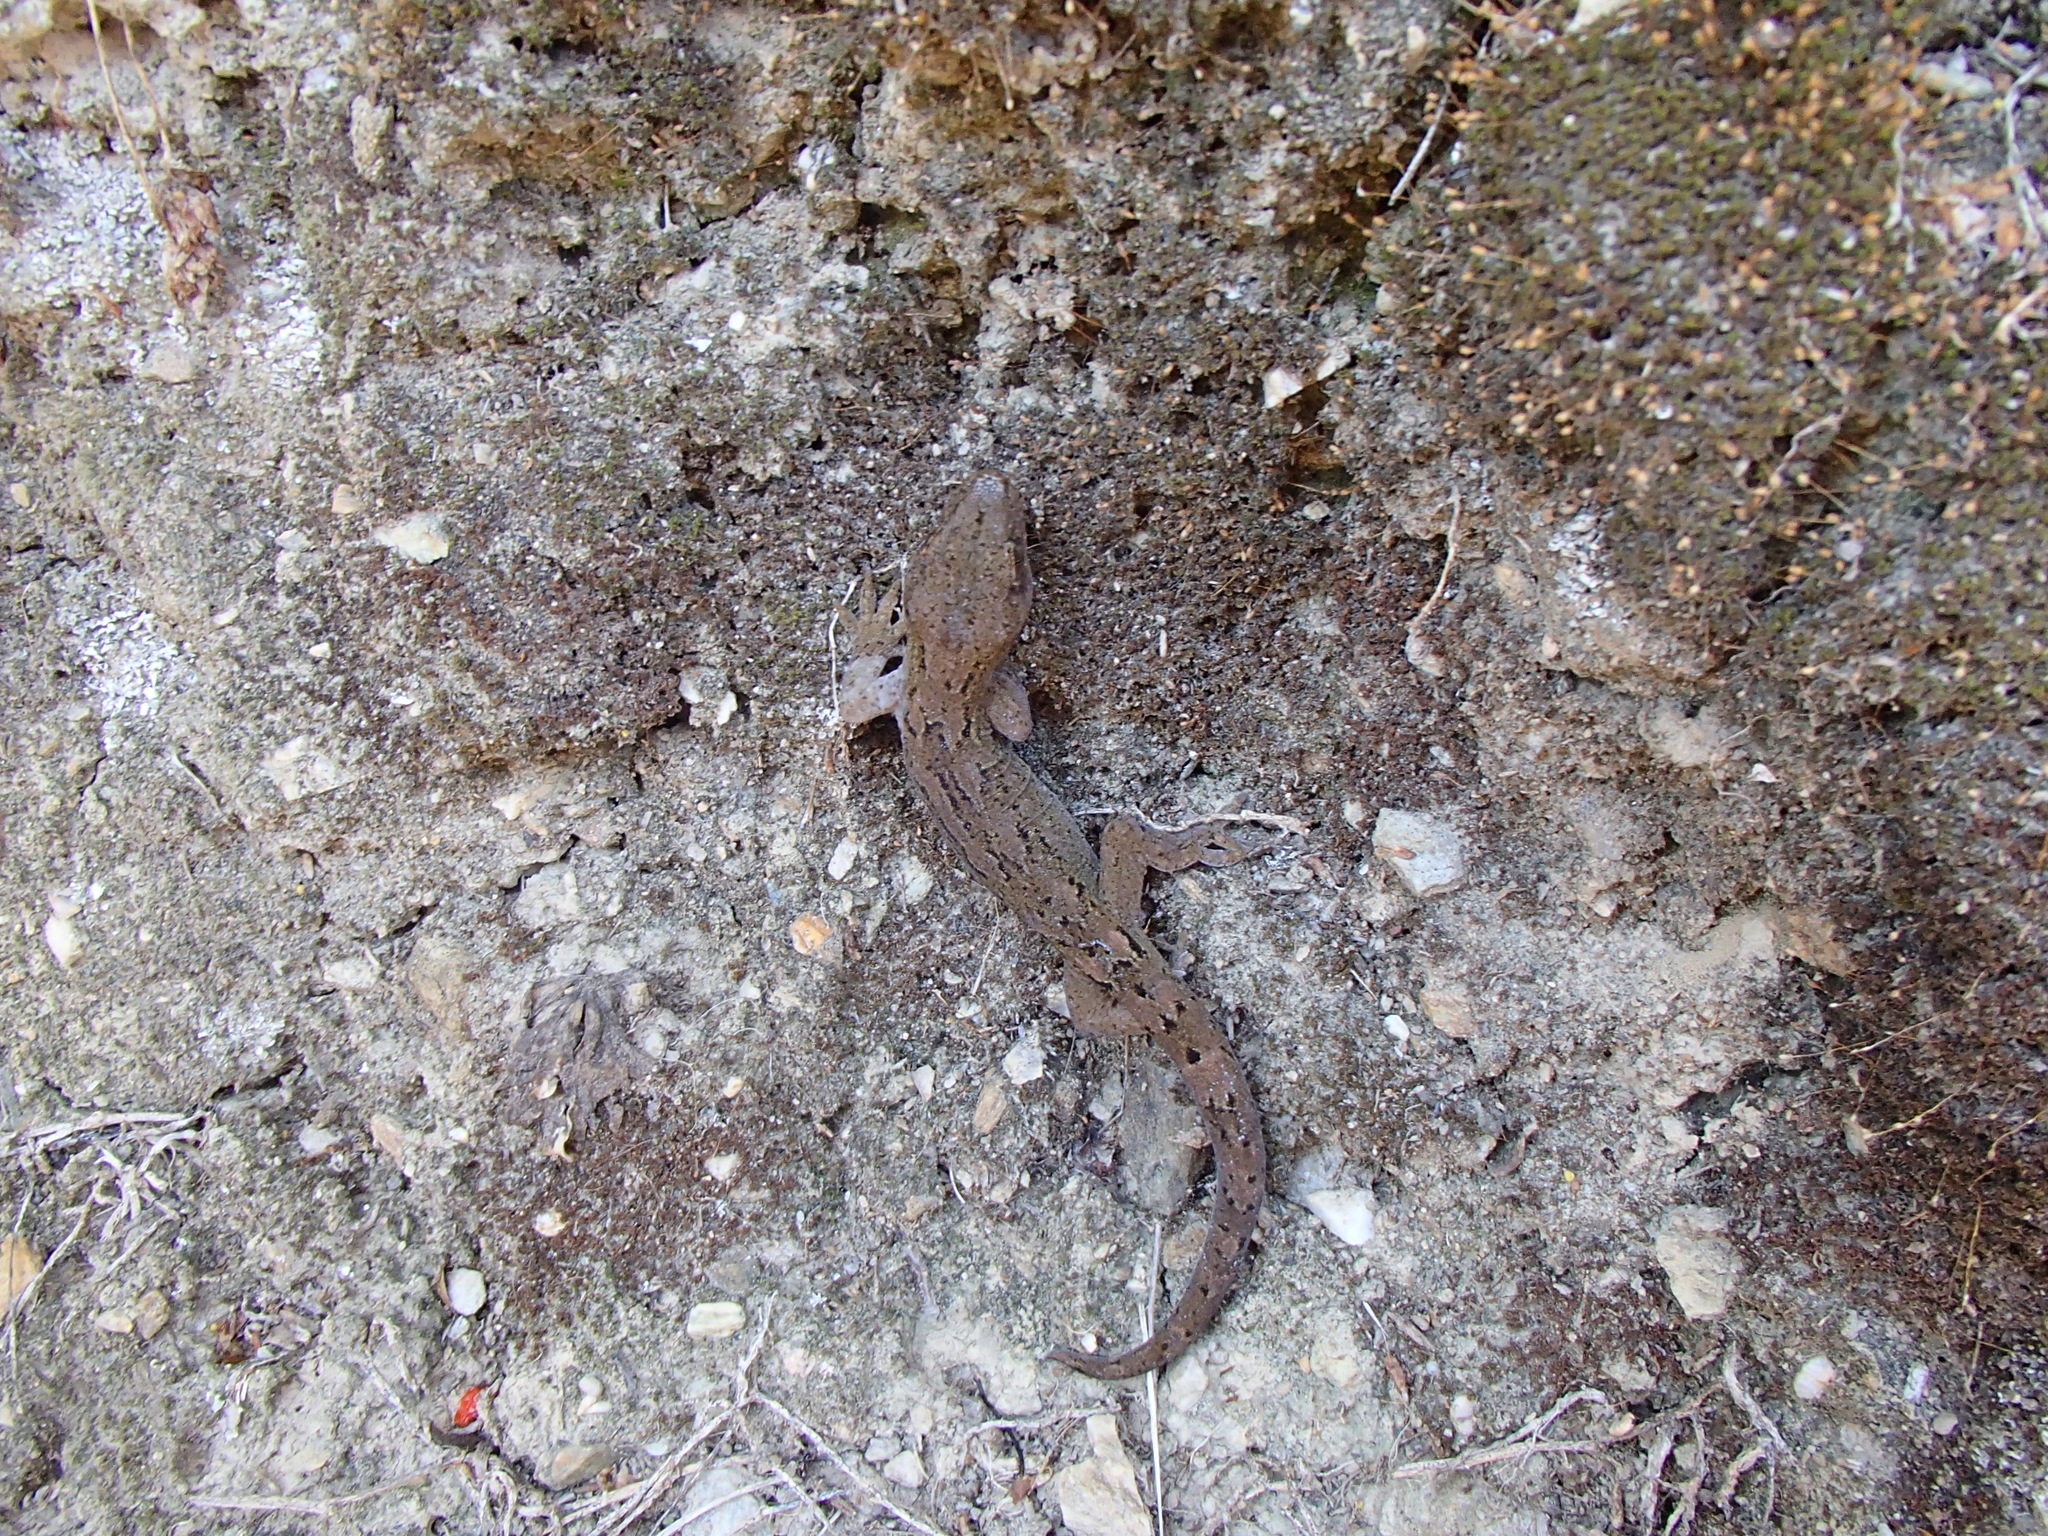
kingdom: Animalia
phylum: Chordata
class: Squamata
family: Diplodactylidae
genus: Woodworthia
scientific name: Woodworthia maculata
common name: Raukawa gecko
